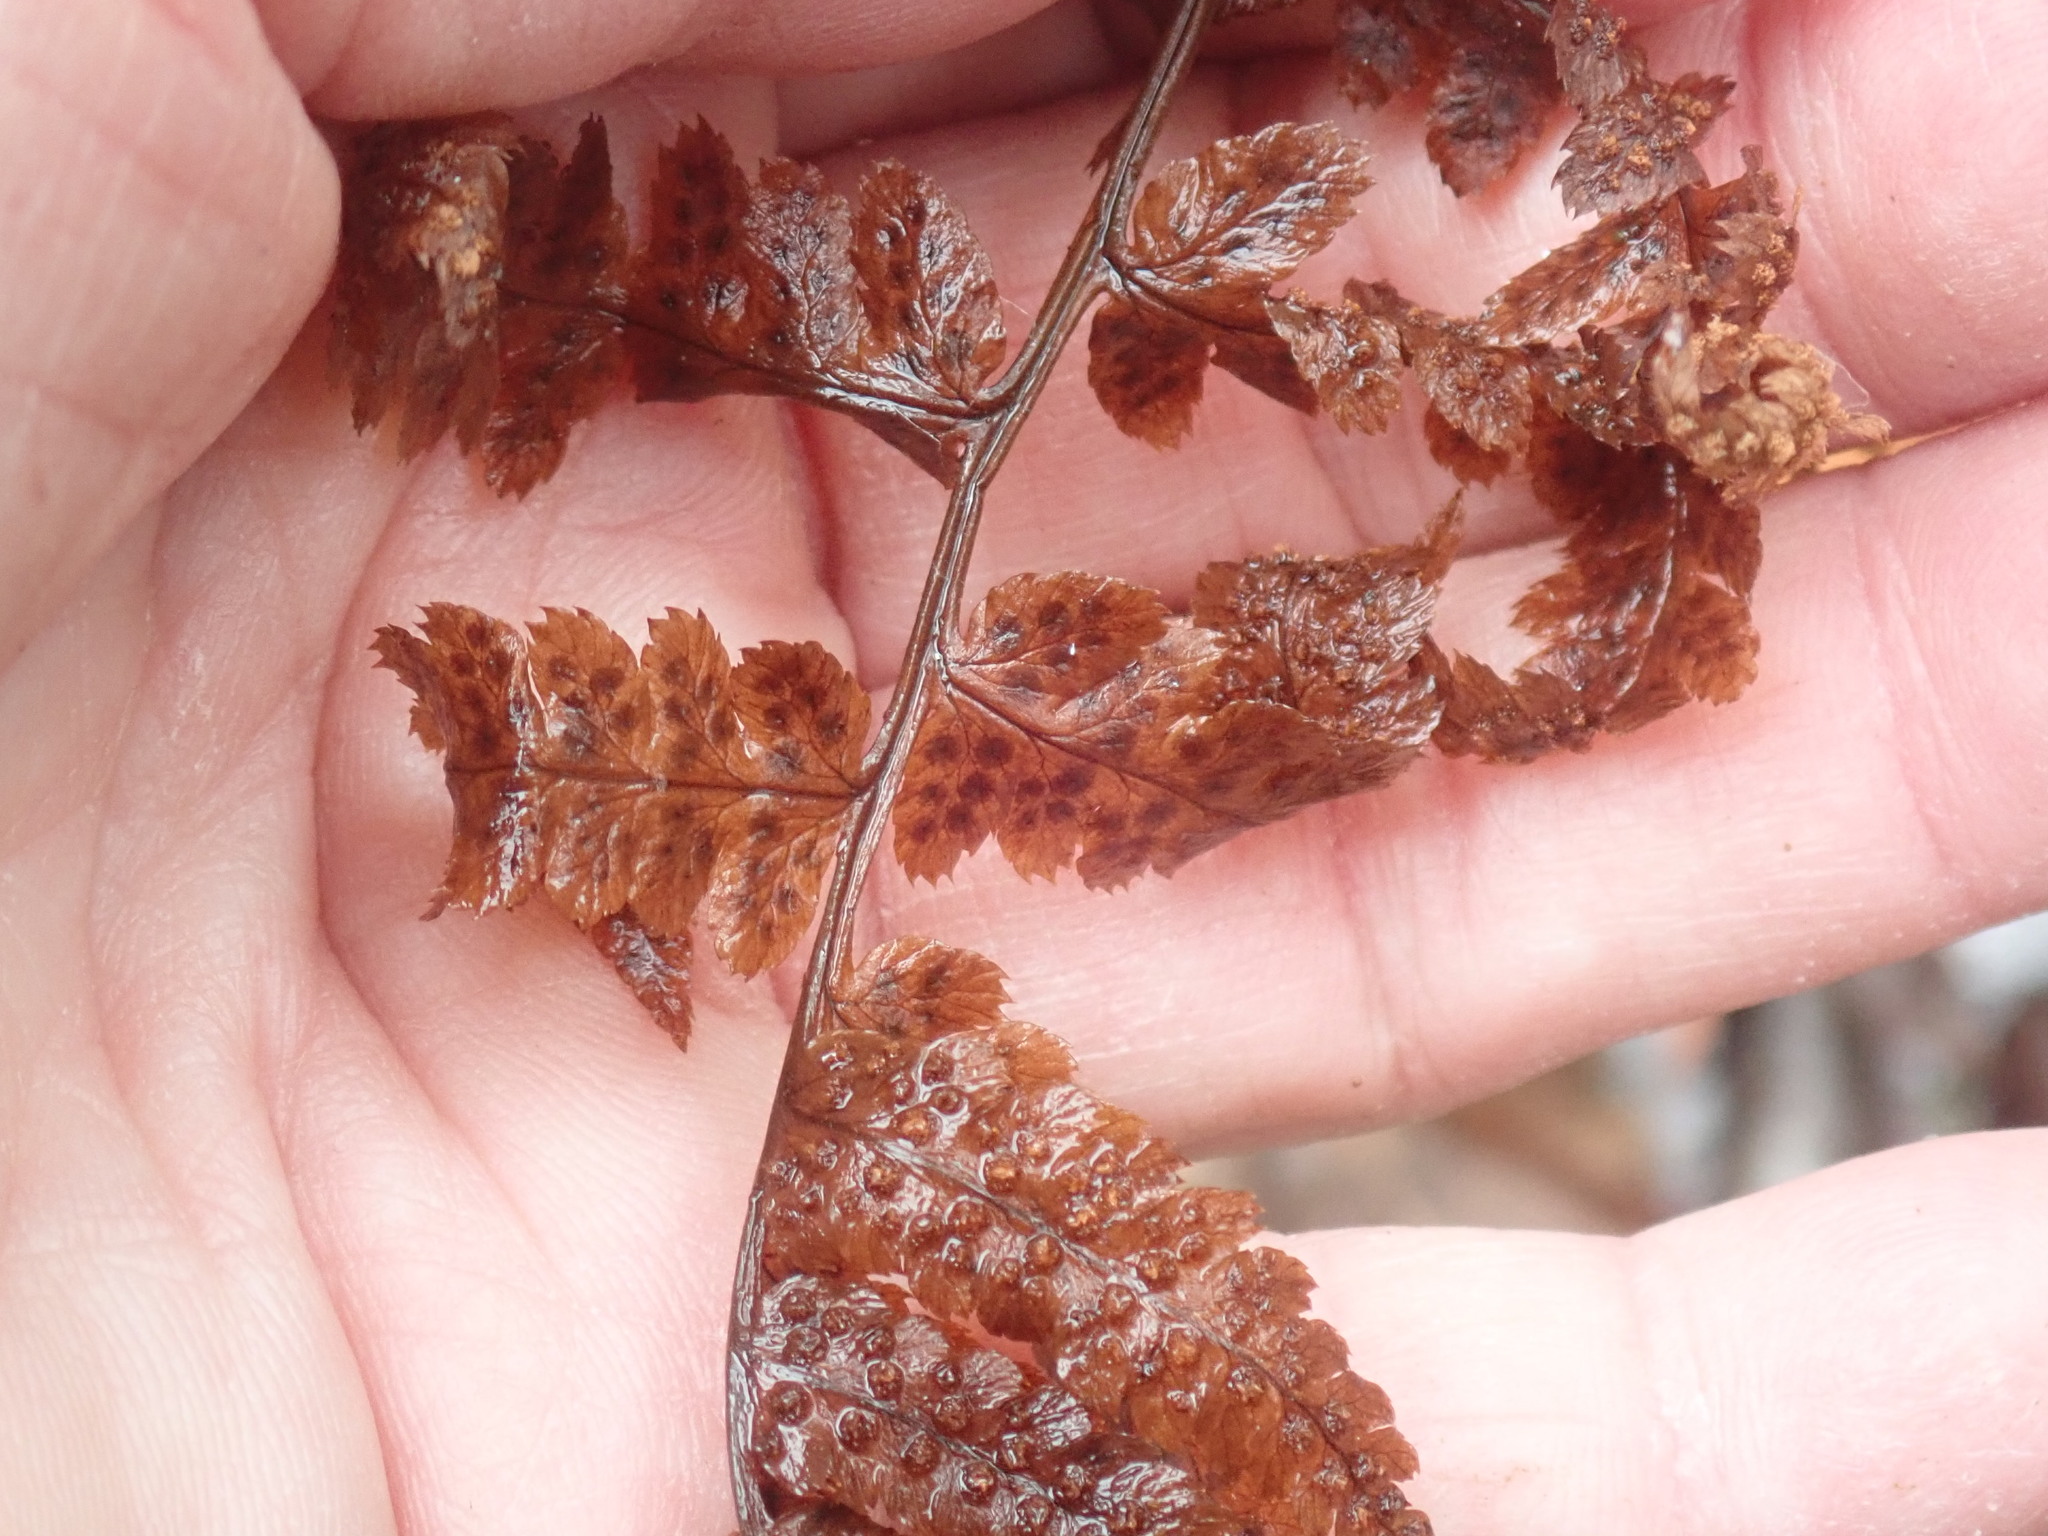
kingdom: Plantae
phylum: Tracheophyta
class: Polypodiopsida
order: Polypodiales
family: Dryopteridaceae
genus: Dryopteris
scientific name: Dryopteris boottii
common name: Boott's fern
